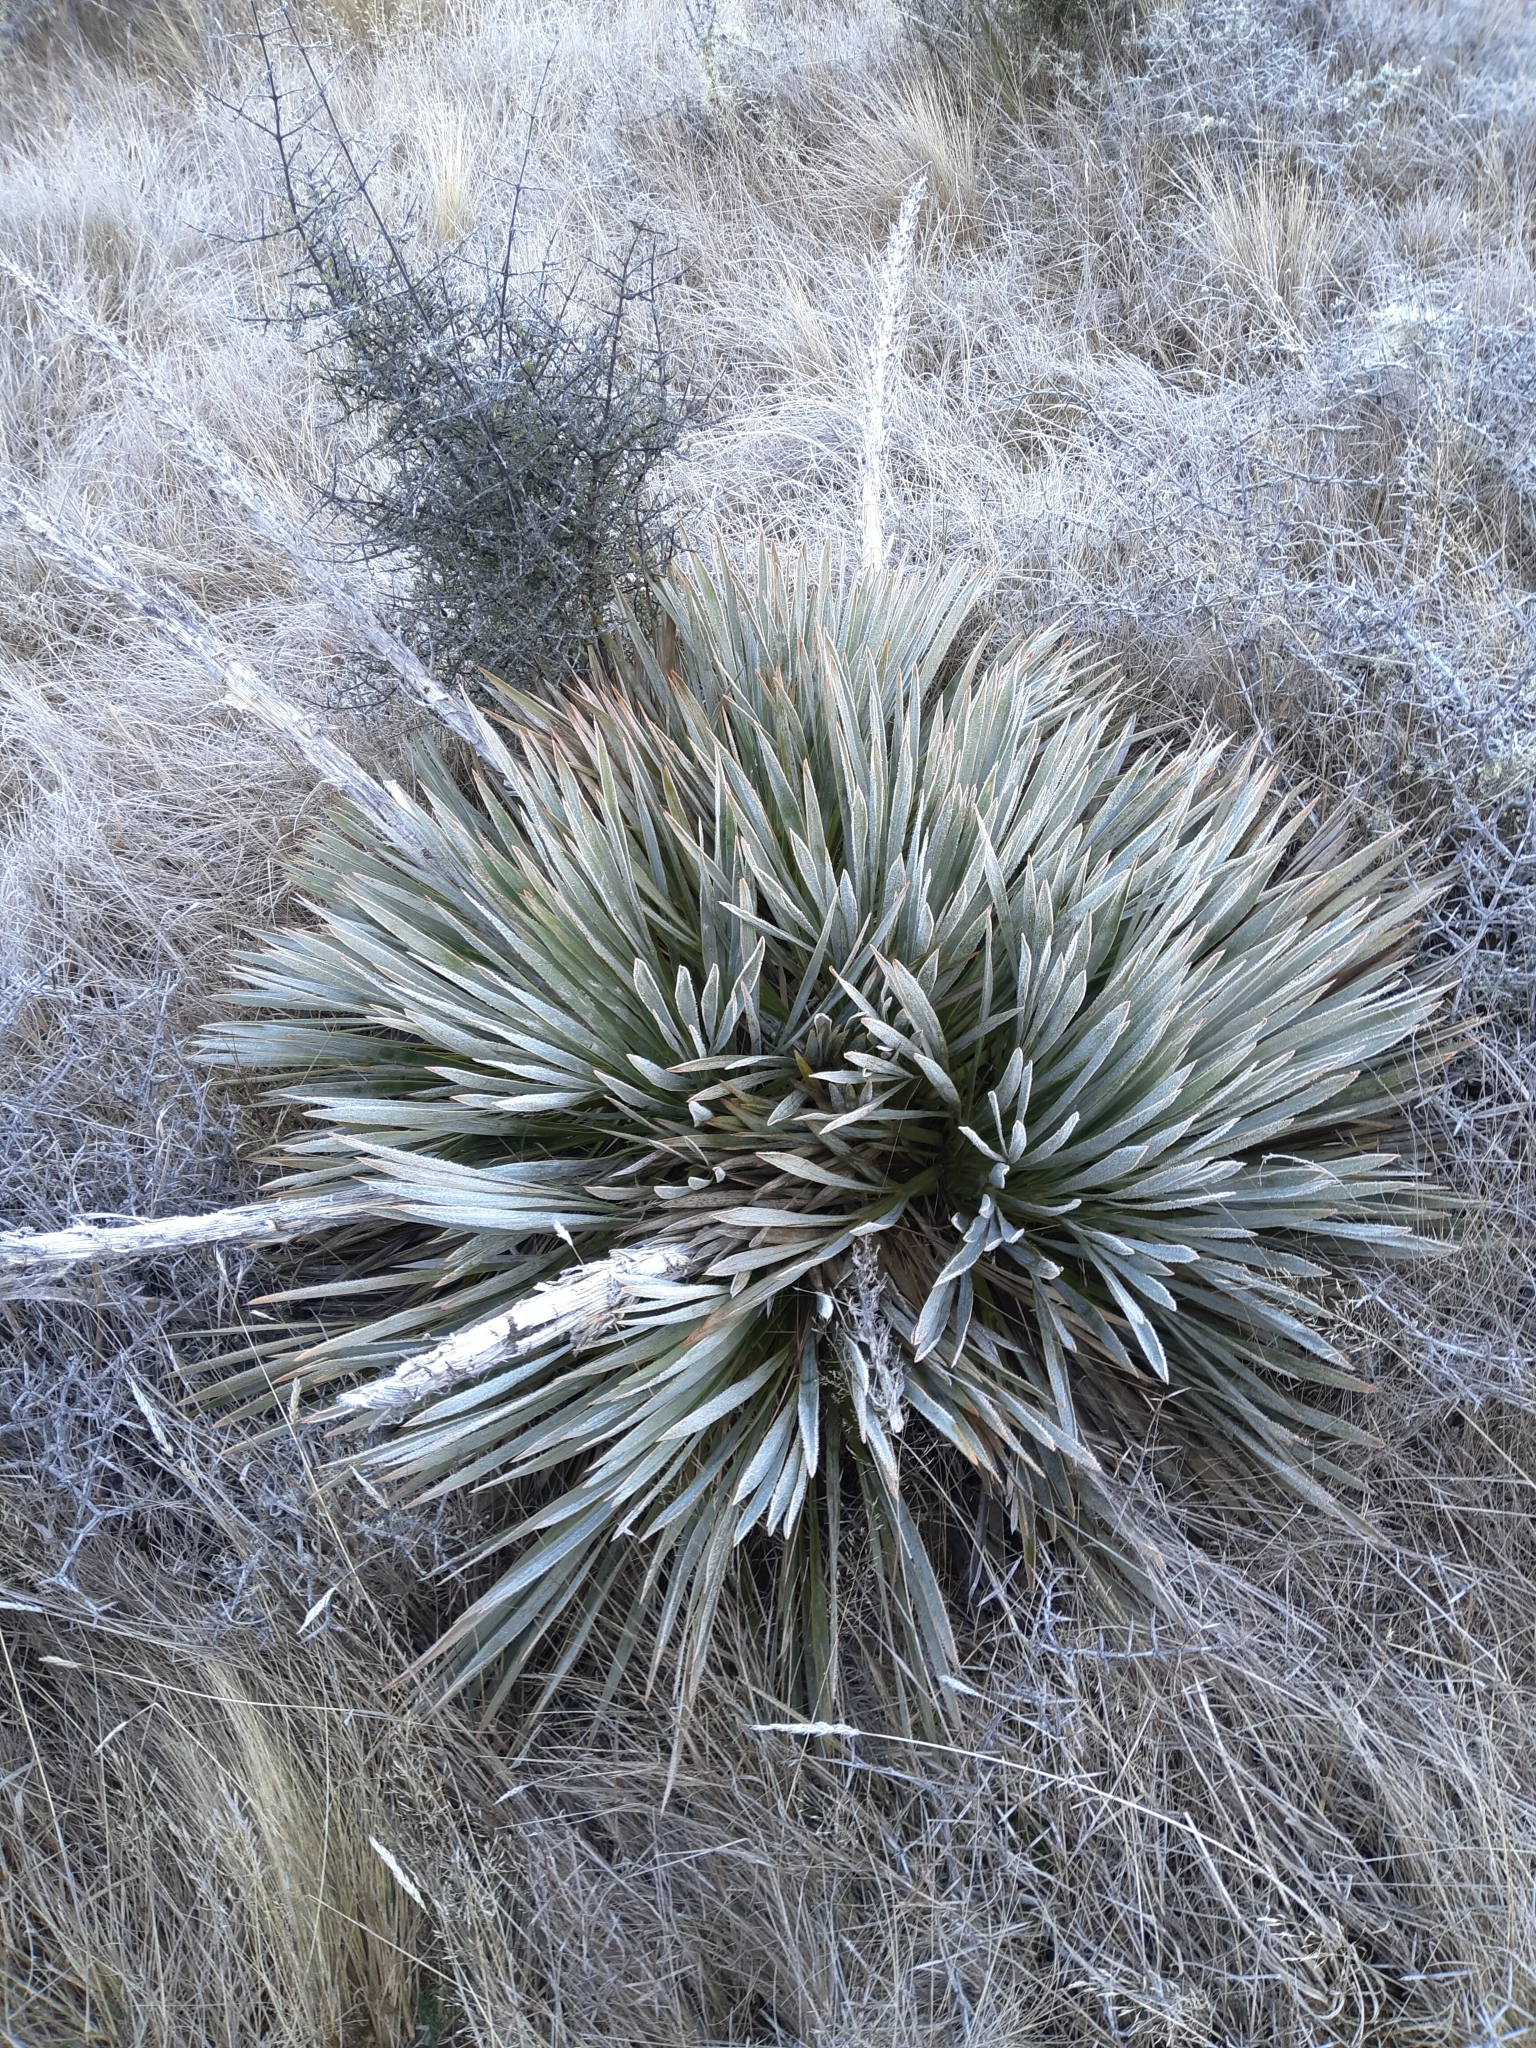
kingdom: Plantae
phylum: Tracheophyta
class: Magnoliopsida
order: Apiales
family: Apiaceae
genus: Aciphylla
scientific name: Aciphylla aurea
